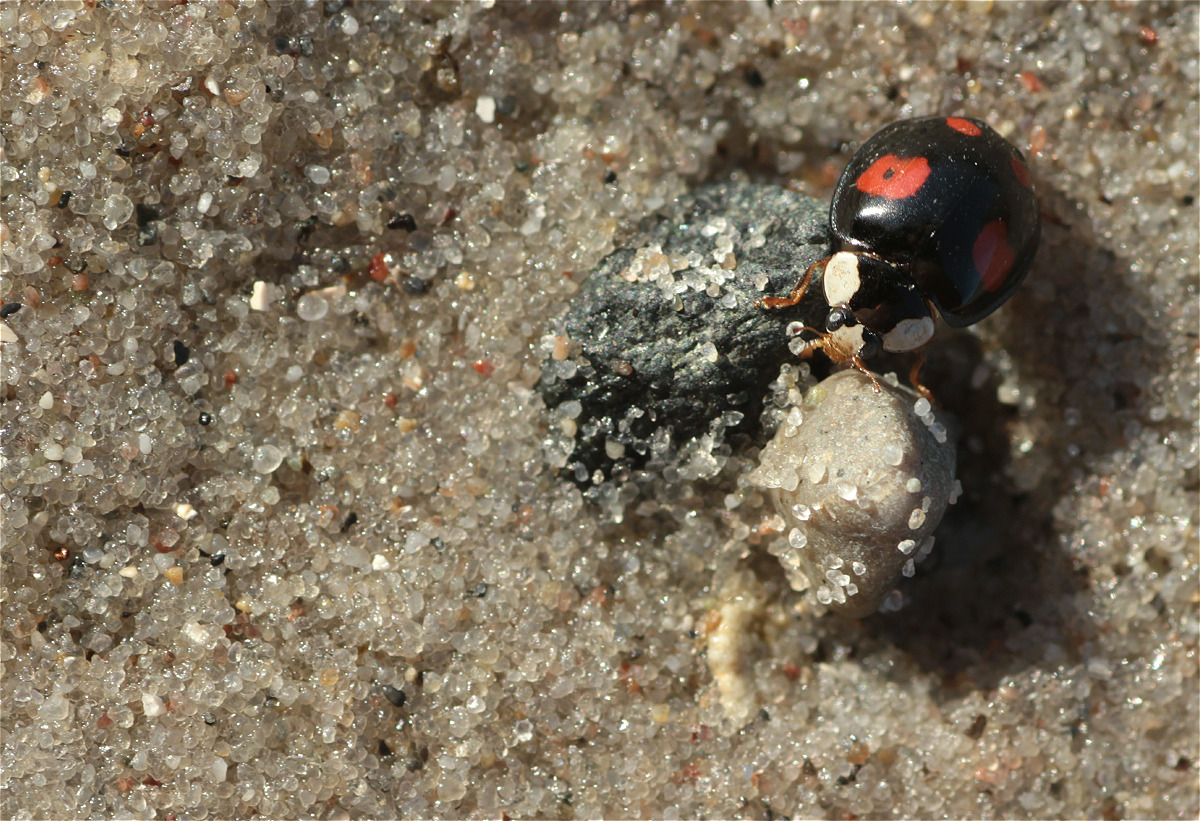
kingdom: Animalia
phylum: Arthropoda
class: Insecta
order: Coleoptera
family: Coccinellidae
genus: Harmonia
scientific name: Harmonia axyridis
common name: Harlequin ladybird
